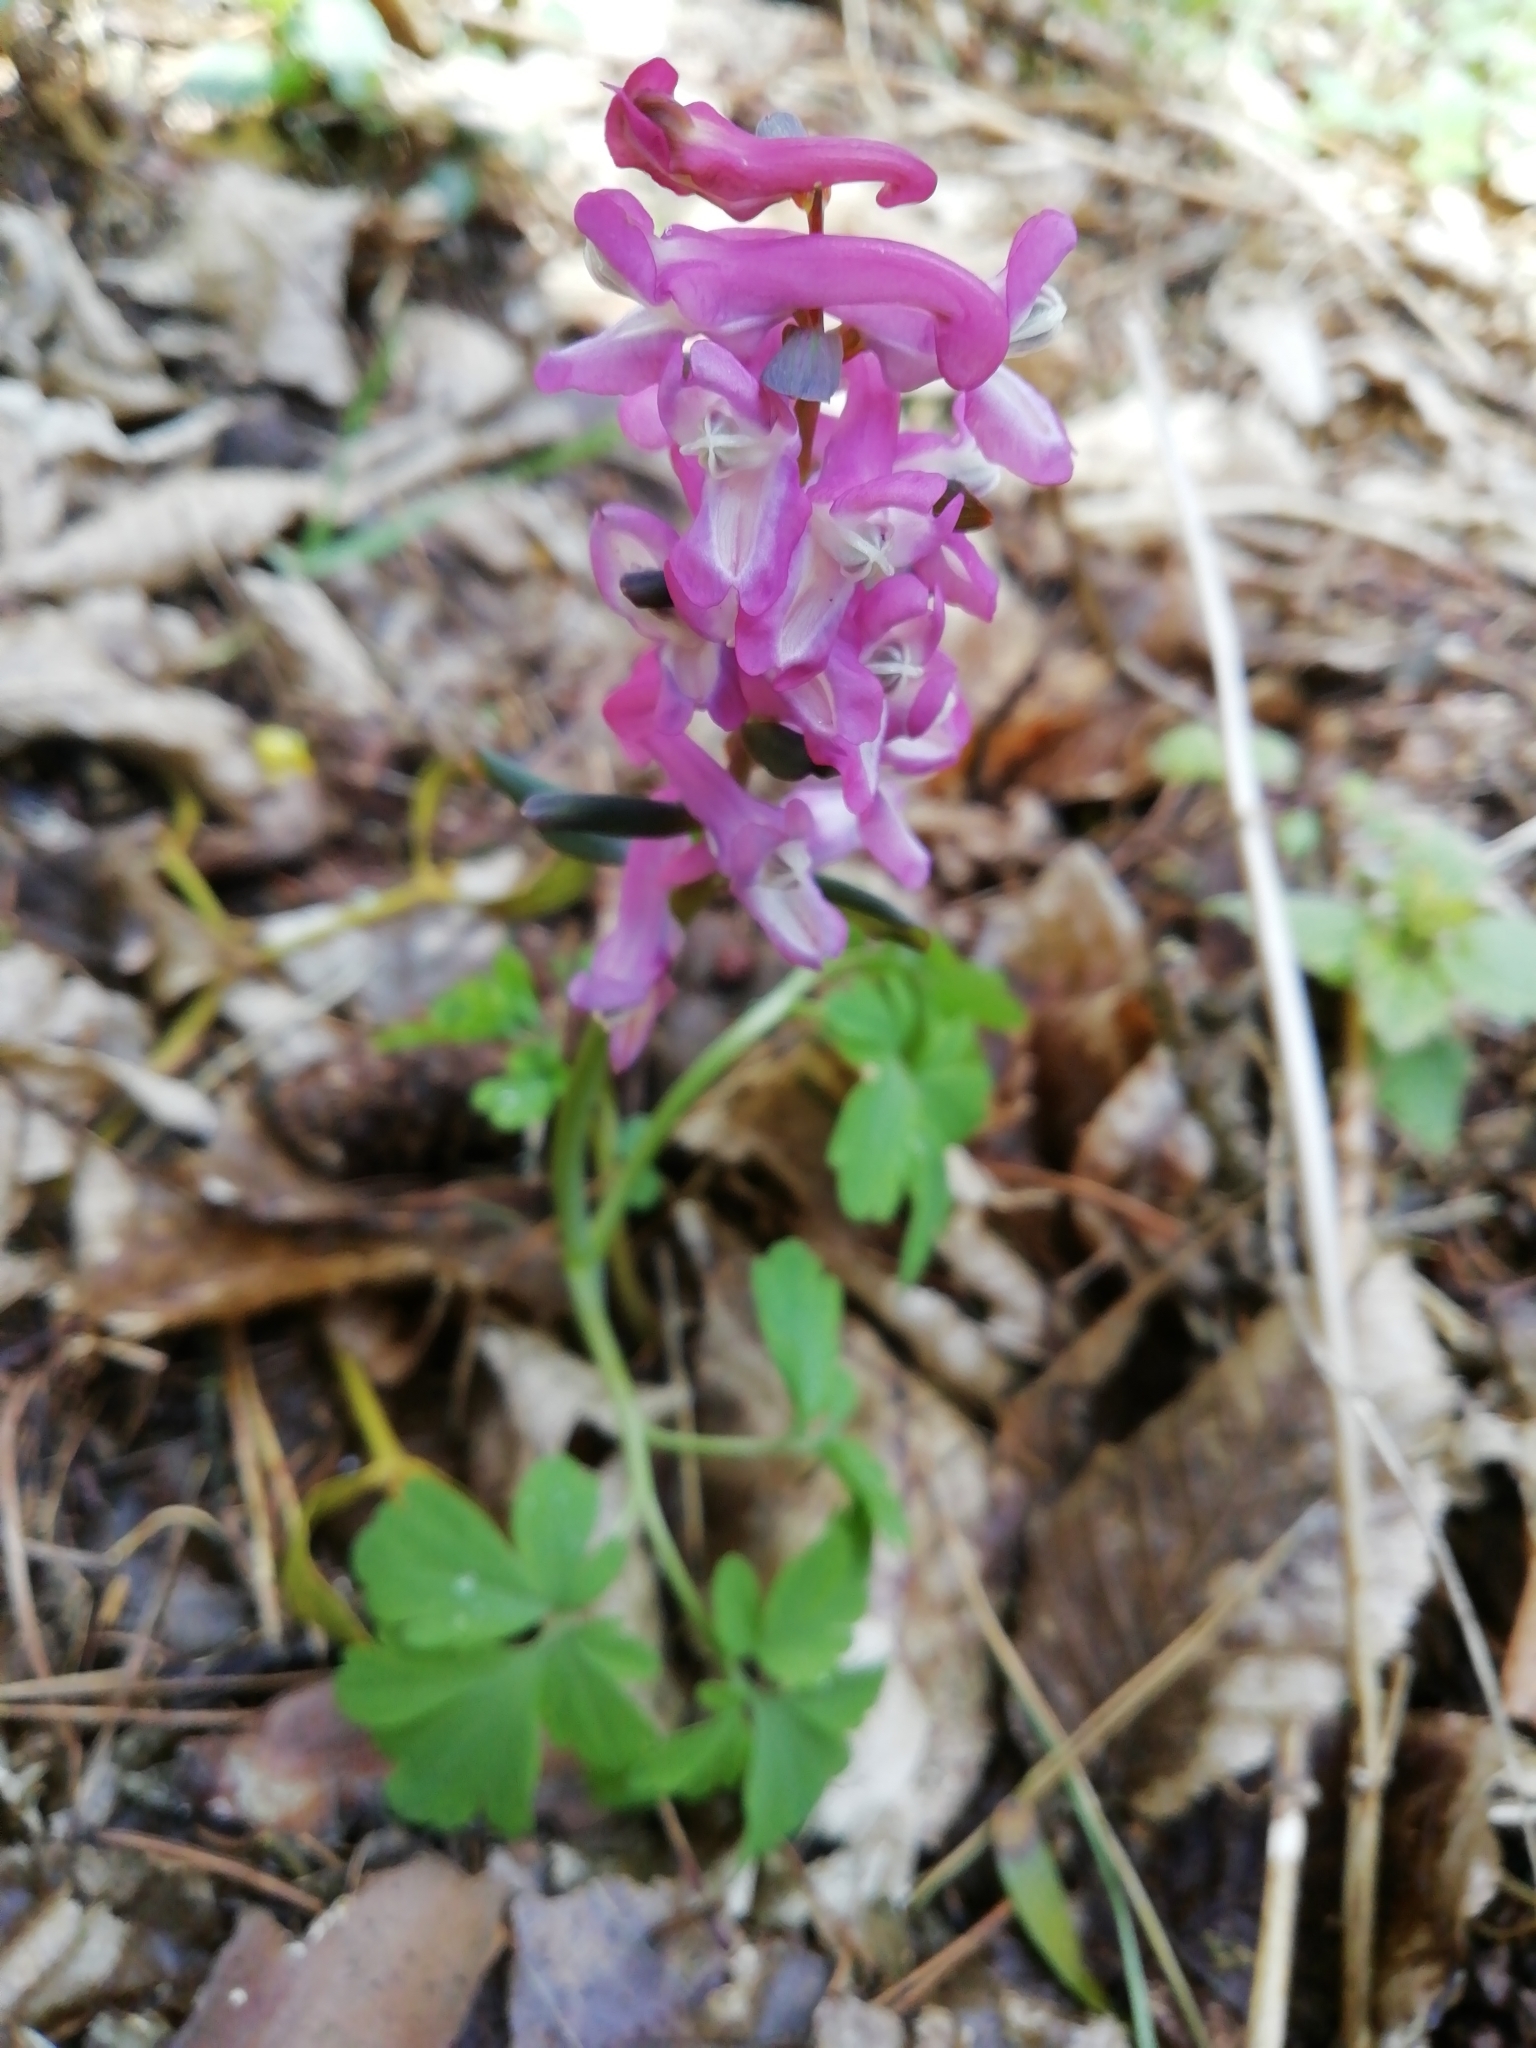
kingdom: Plantae
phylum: Tracheophyta
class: Magnoliopsida
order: Ranunculales
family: Papaveraceae
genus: Corydalis
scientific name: Corydalis cava
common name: Hollowroot
